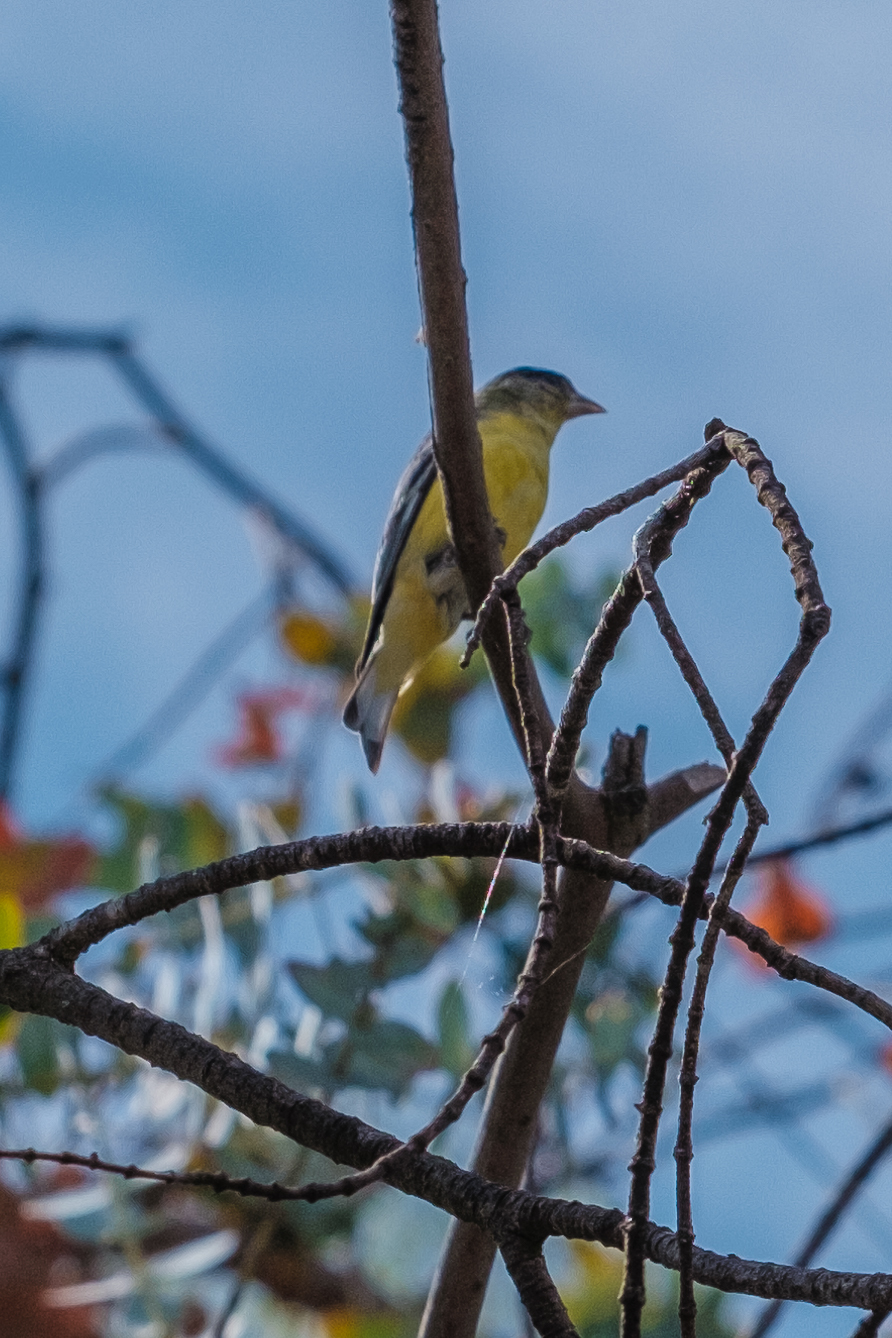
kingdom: Animalia
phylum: Chordata
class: Aves
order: Passeriformes
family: Fringillidae
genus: Spinus
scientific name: Spinus psaltria
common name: Lesser goldfinch
